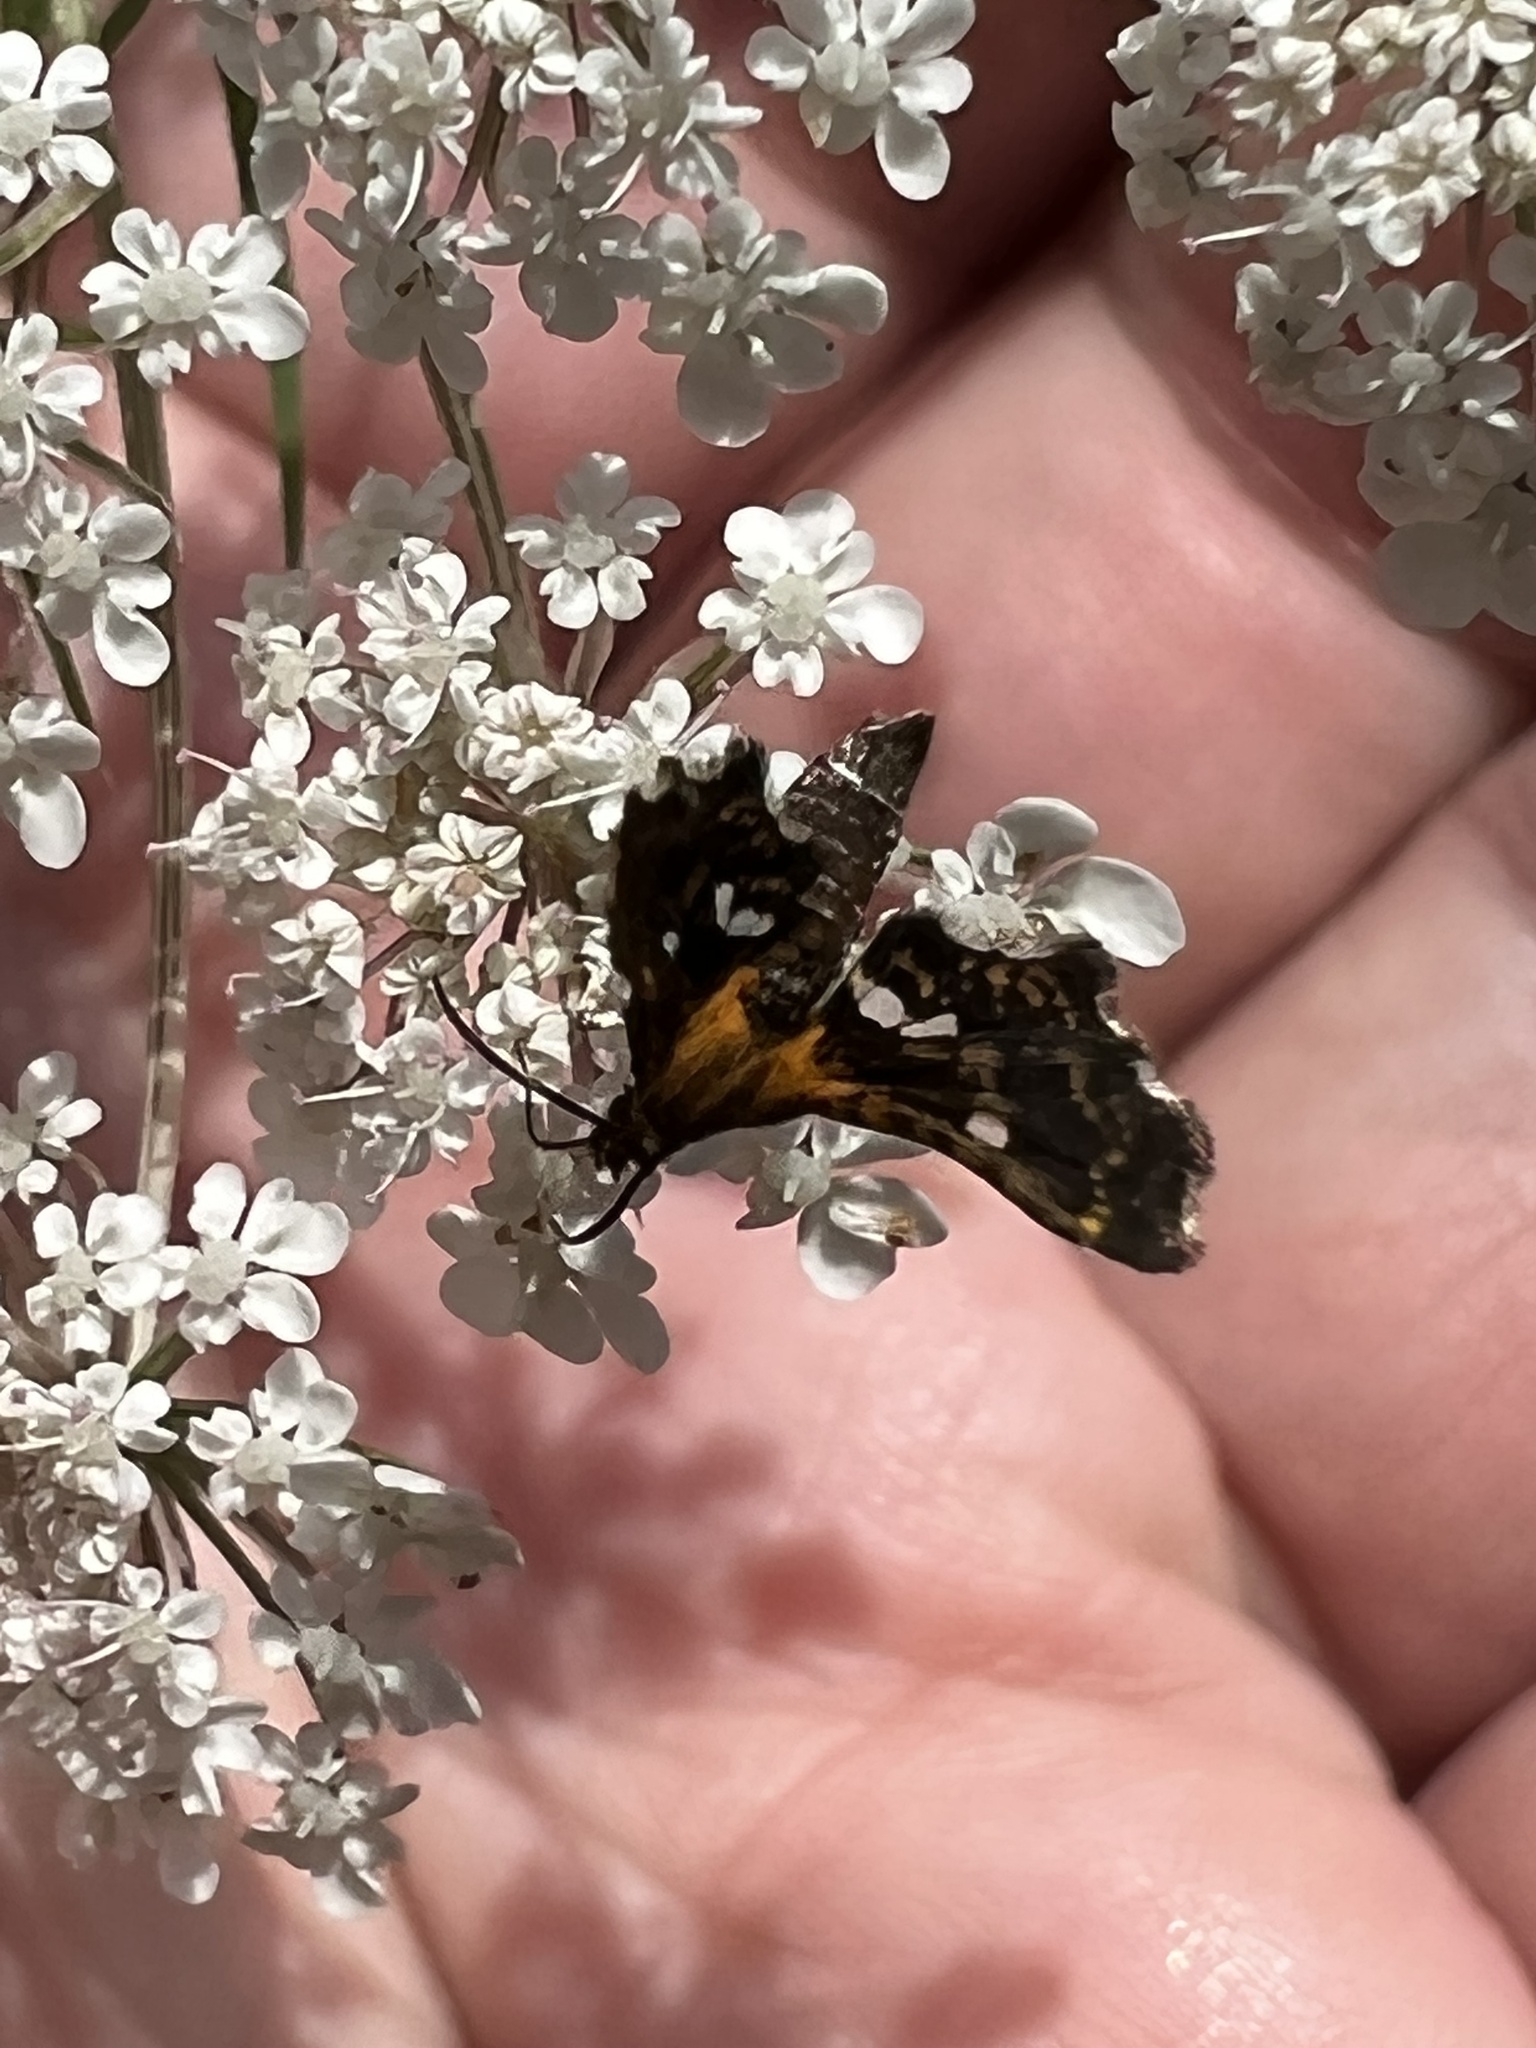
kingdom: Animalia
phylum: Arthropoda
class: Insecta
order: Lepidoptera
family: Thyrididae
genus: Thyris
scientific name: Thyris maculata
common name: Spotted thyris moth
